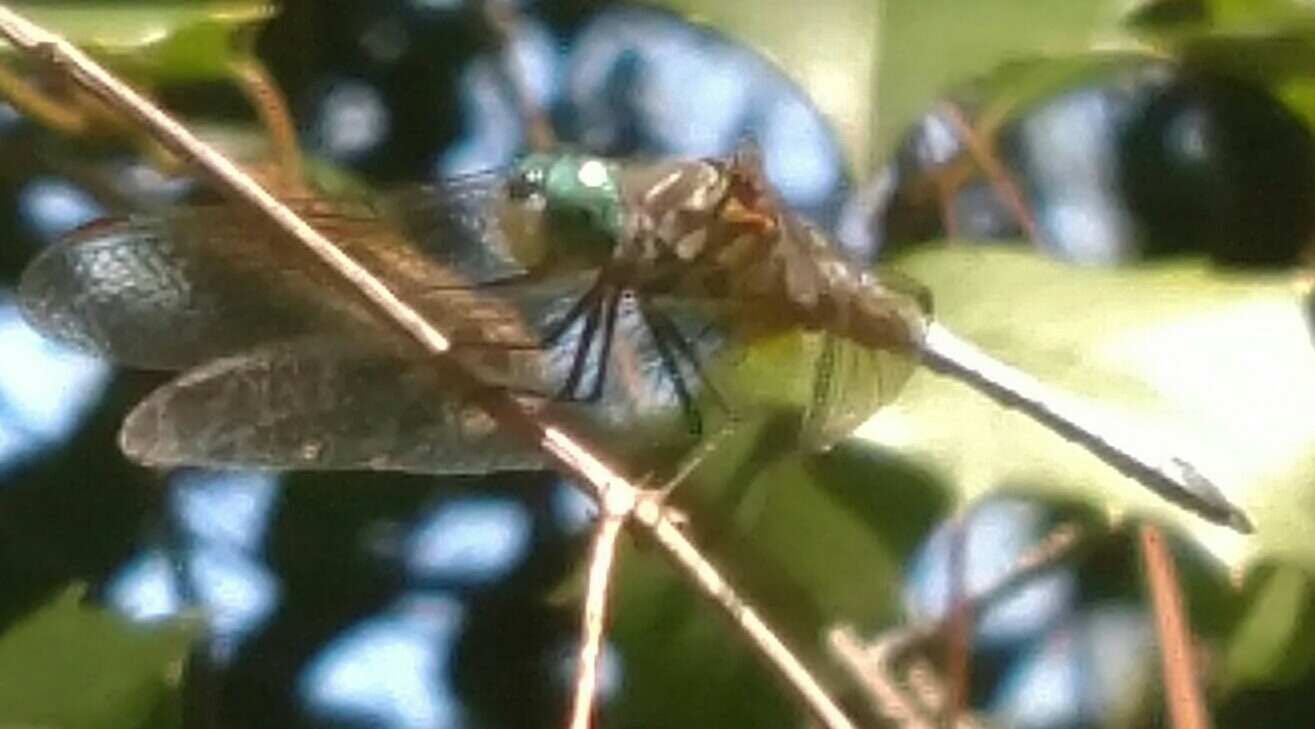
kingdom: Animalia
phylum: Arthropoda
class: Insecta
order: Odonata
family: Libellulidae
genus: Pachydiplax
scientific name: Pachydiplax longipennis
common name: Blue dasher
